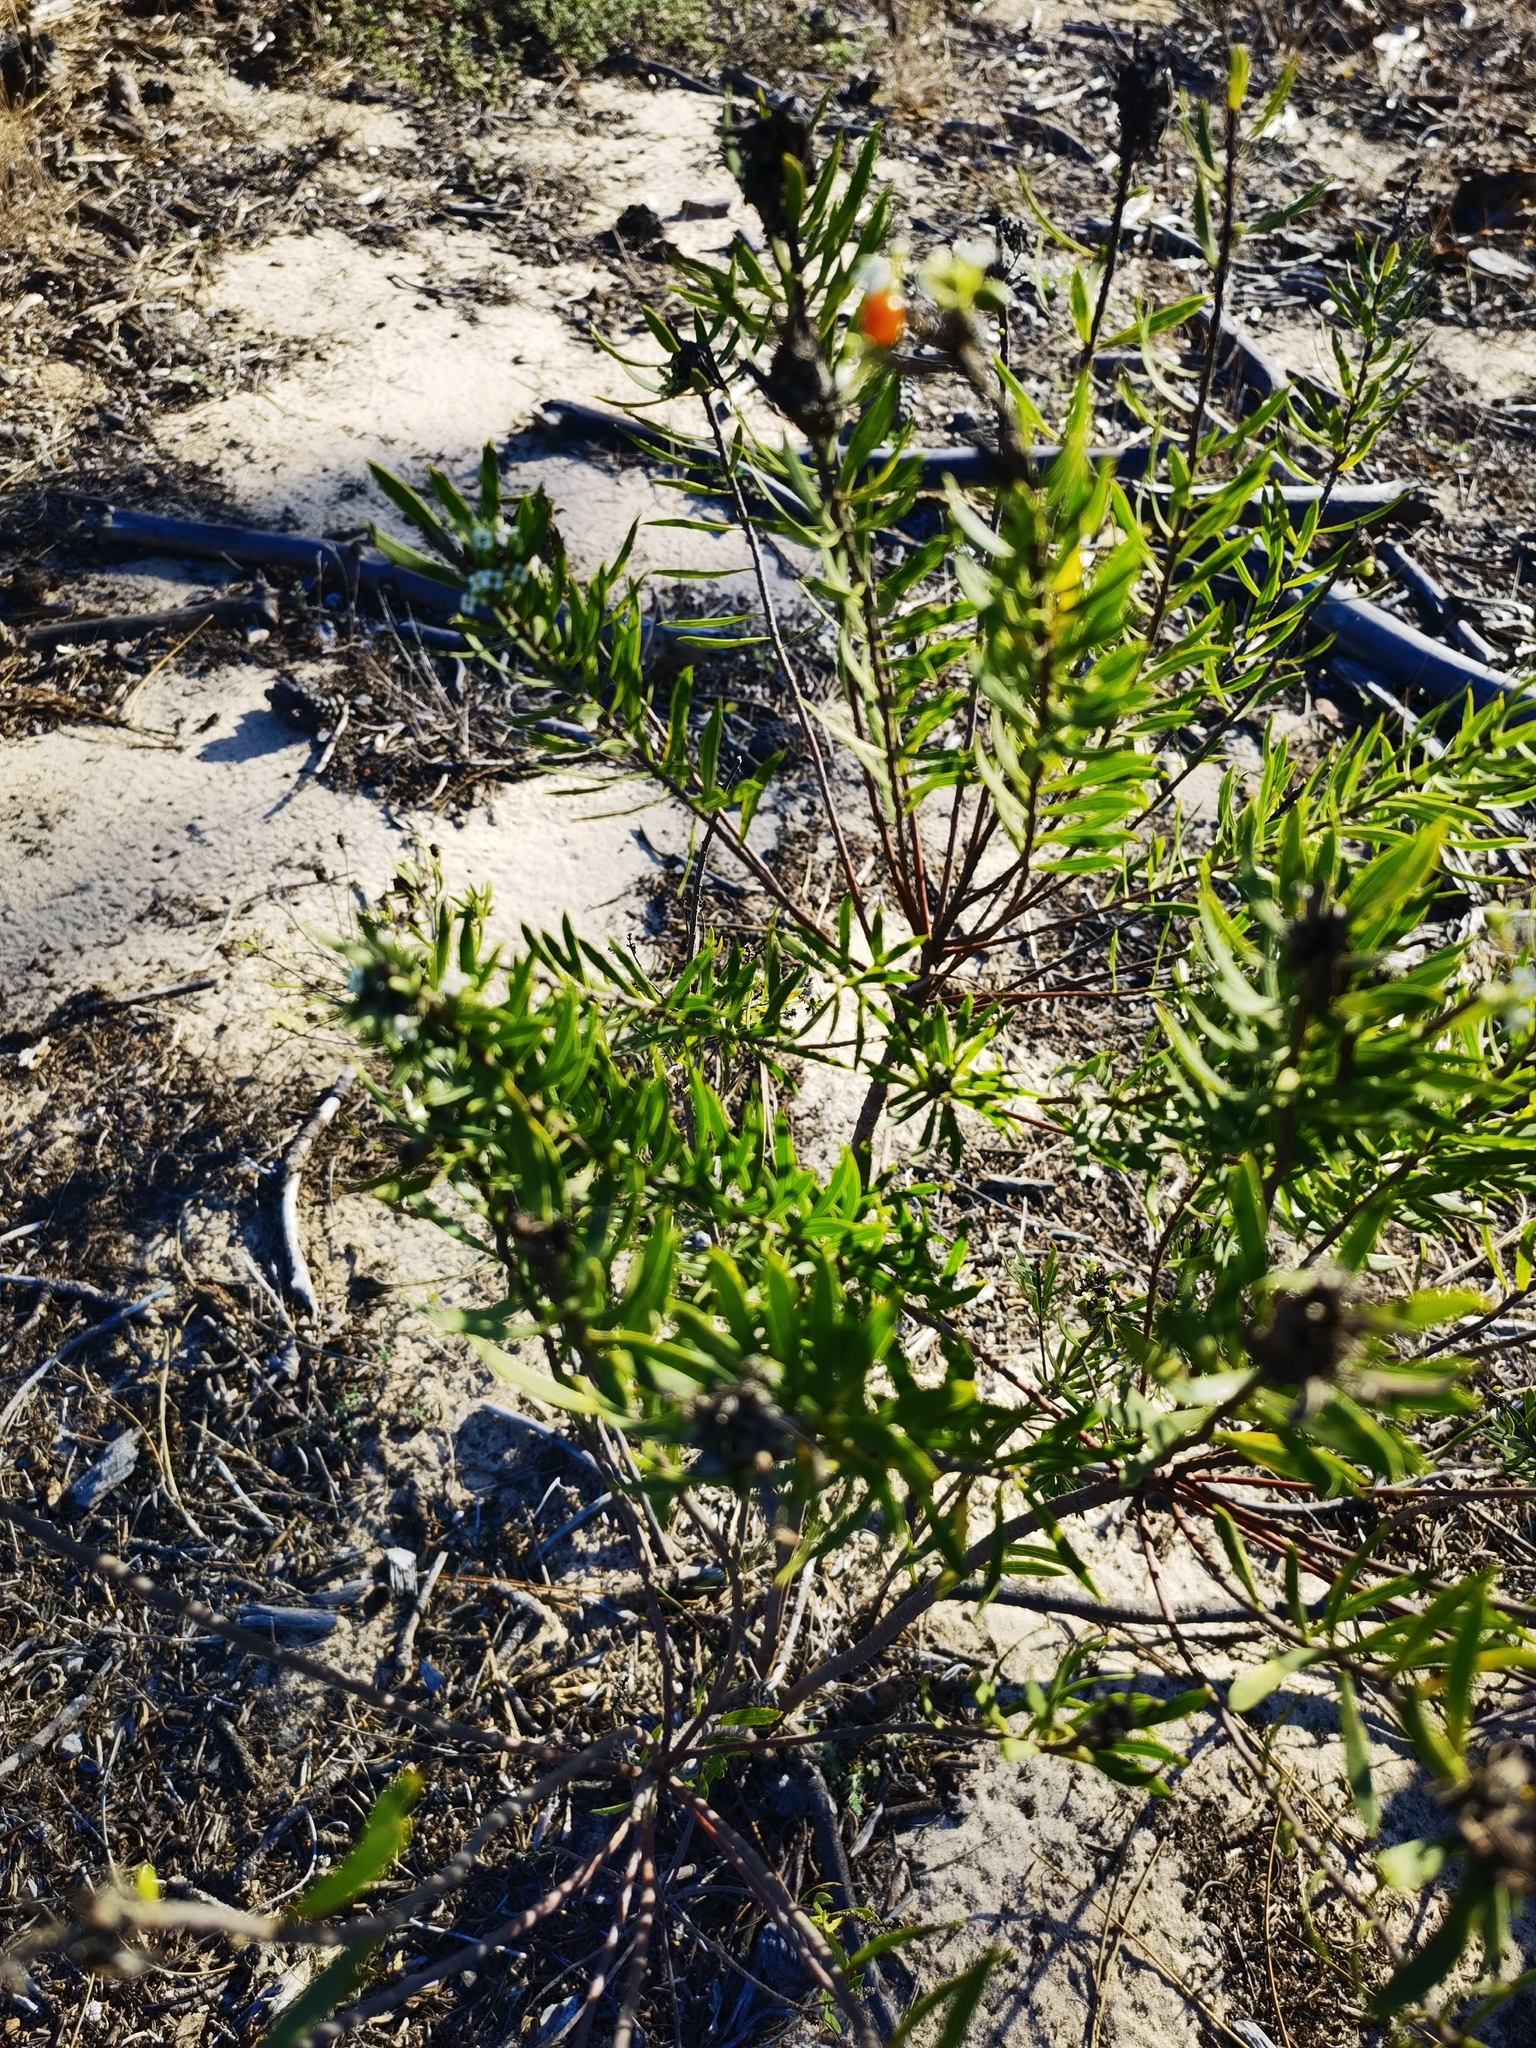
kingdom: Plantae
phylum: Tracheophyta
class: Magnoliopsida
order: Malvales
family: Thymelaeaceae
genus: Daphne
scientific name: Daphne gnidium
